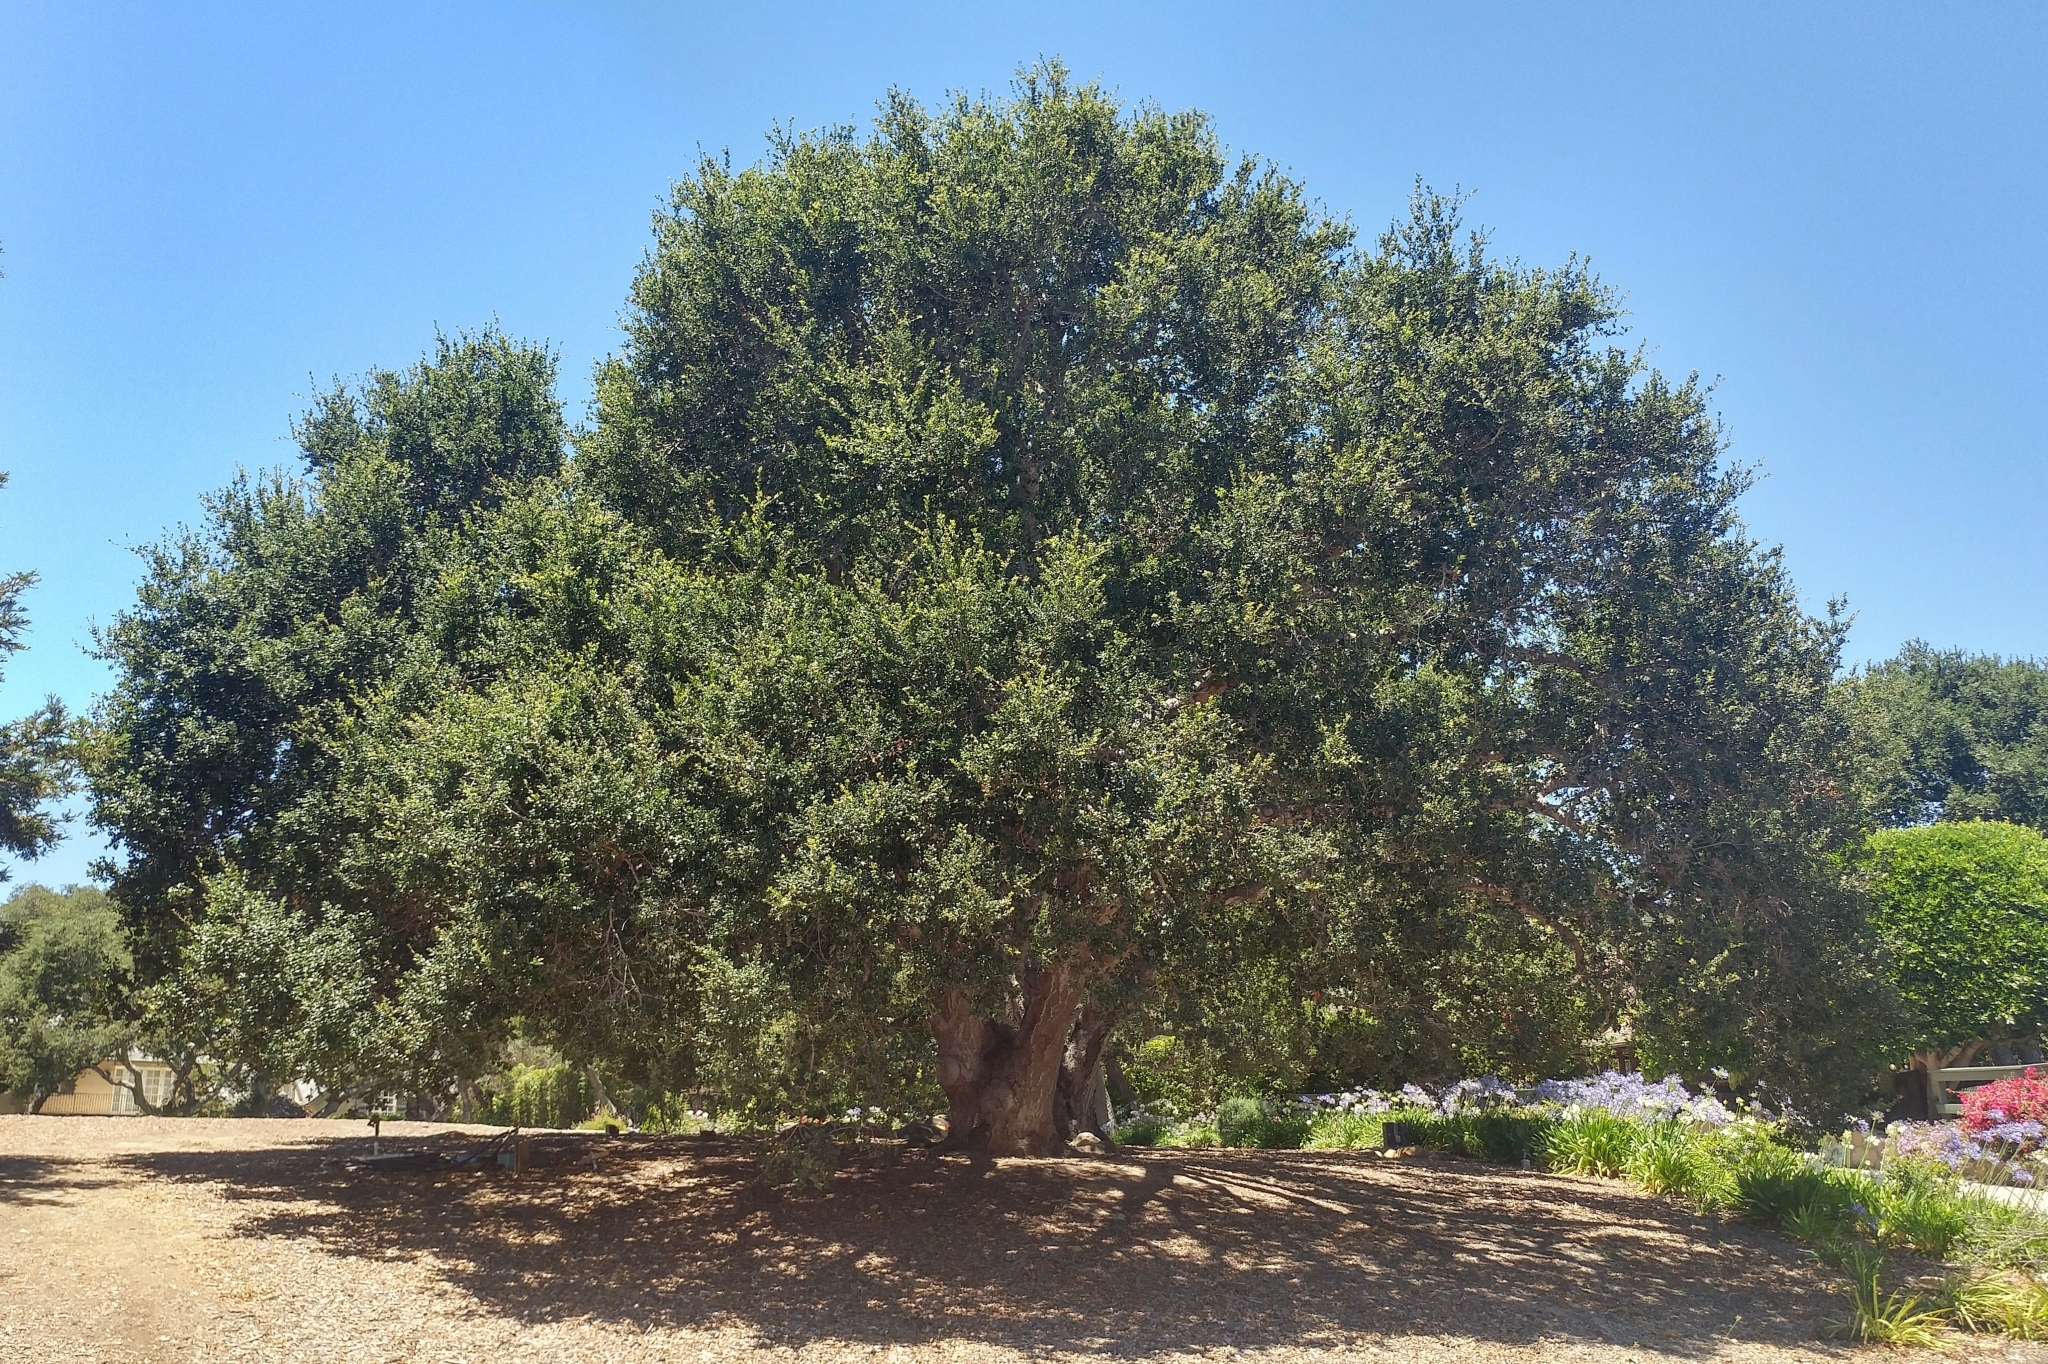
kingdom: Plantae
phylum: Tracheophyta
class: Magnoliopsida
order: Fagales
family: Fagaceae
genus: Quercus
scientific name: Quercus agrifolia
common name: California live oak
